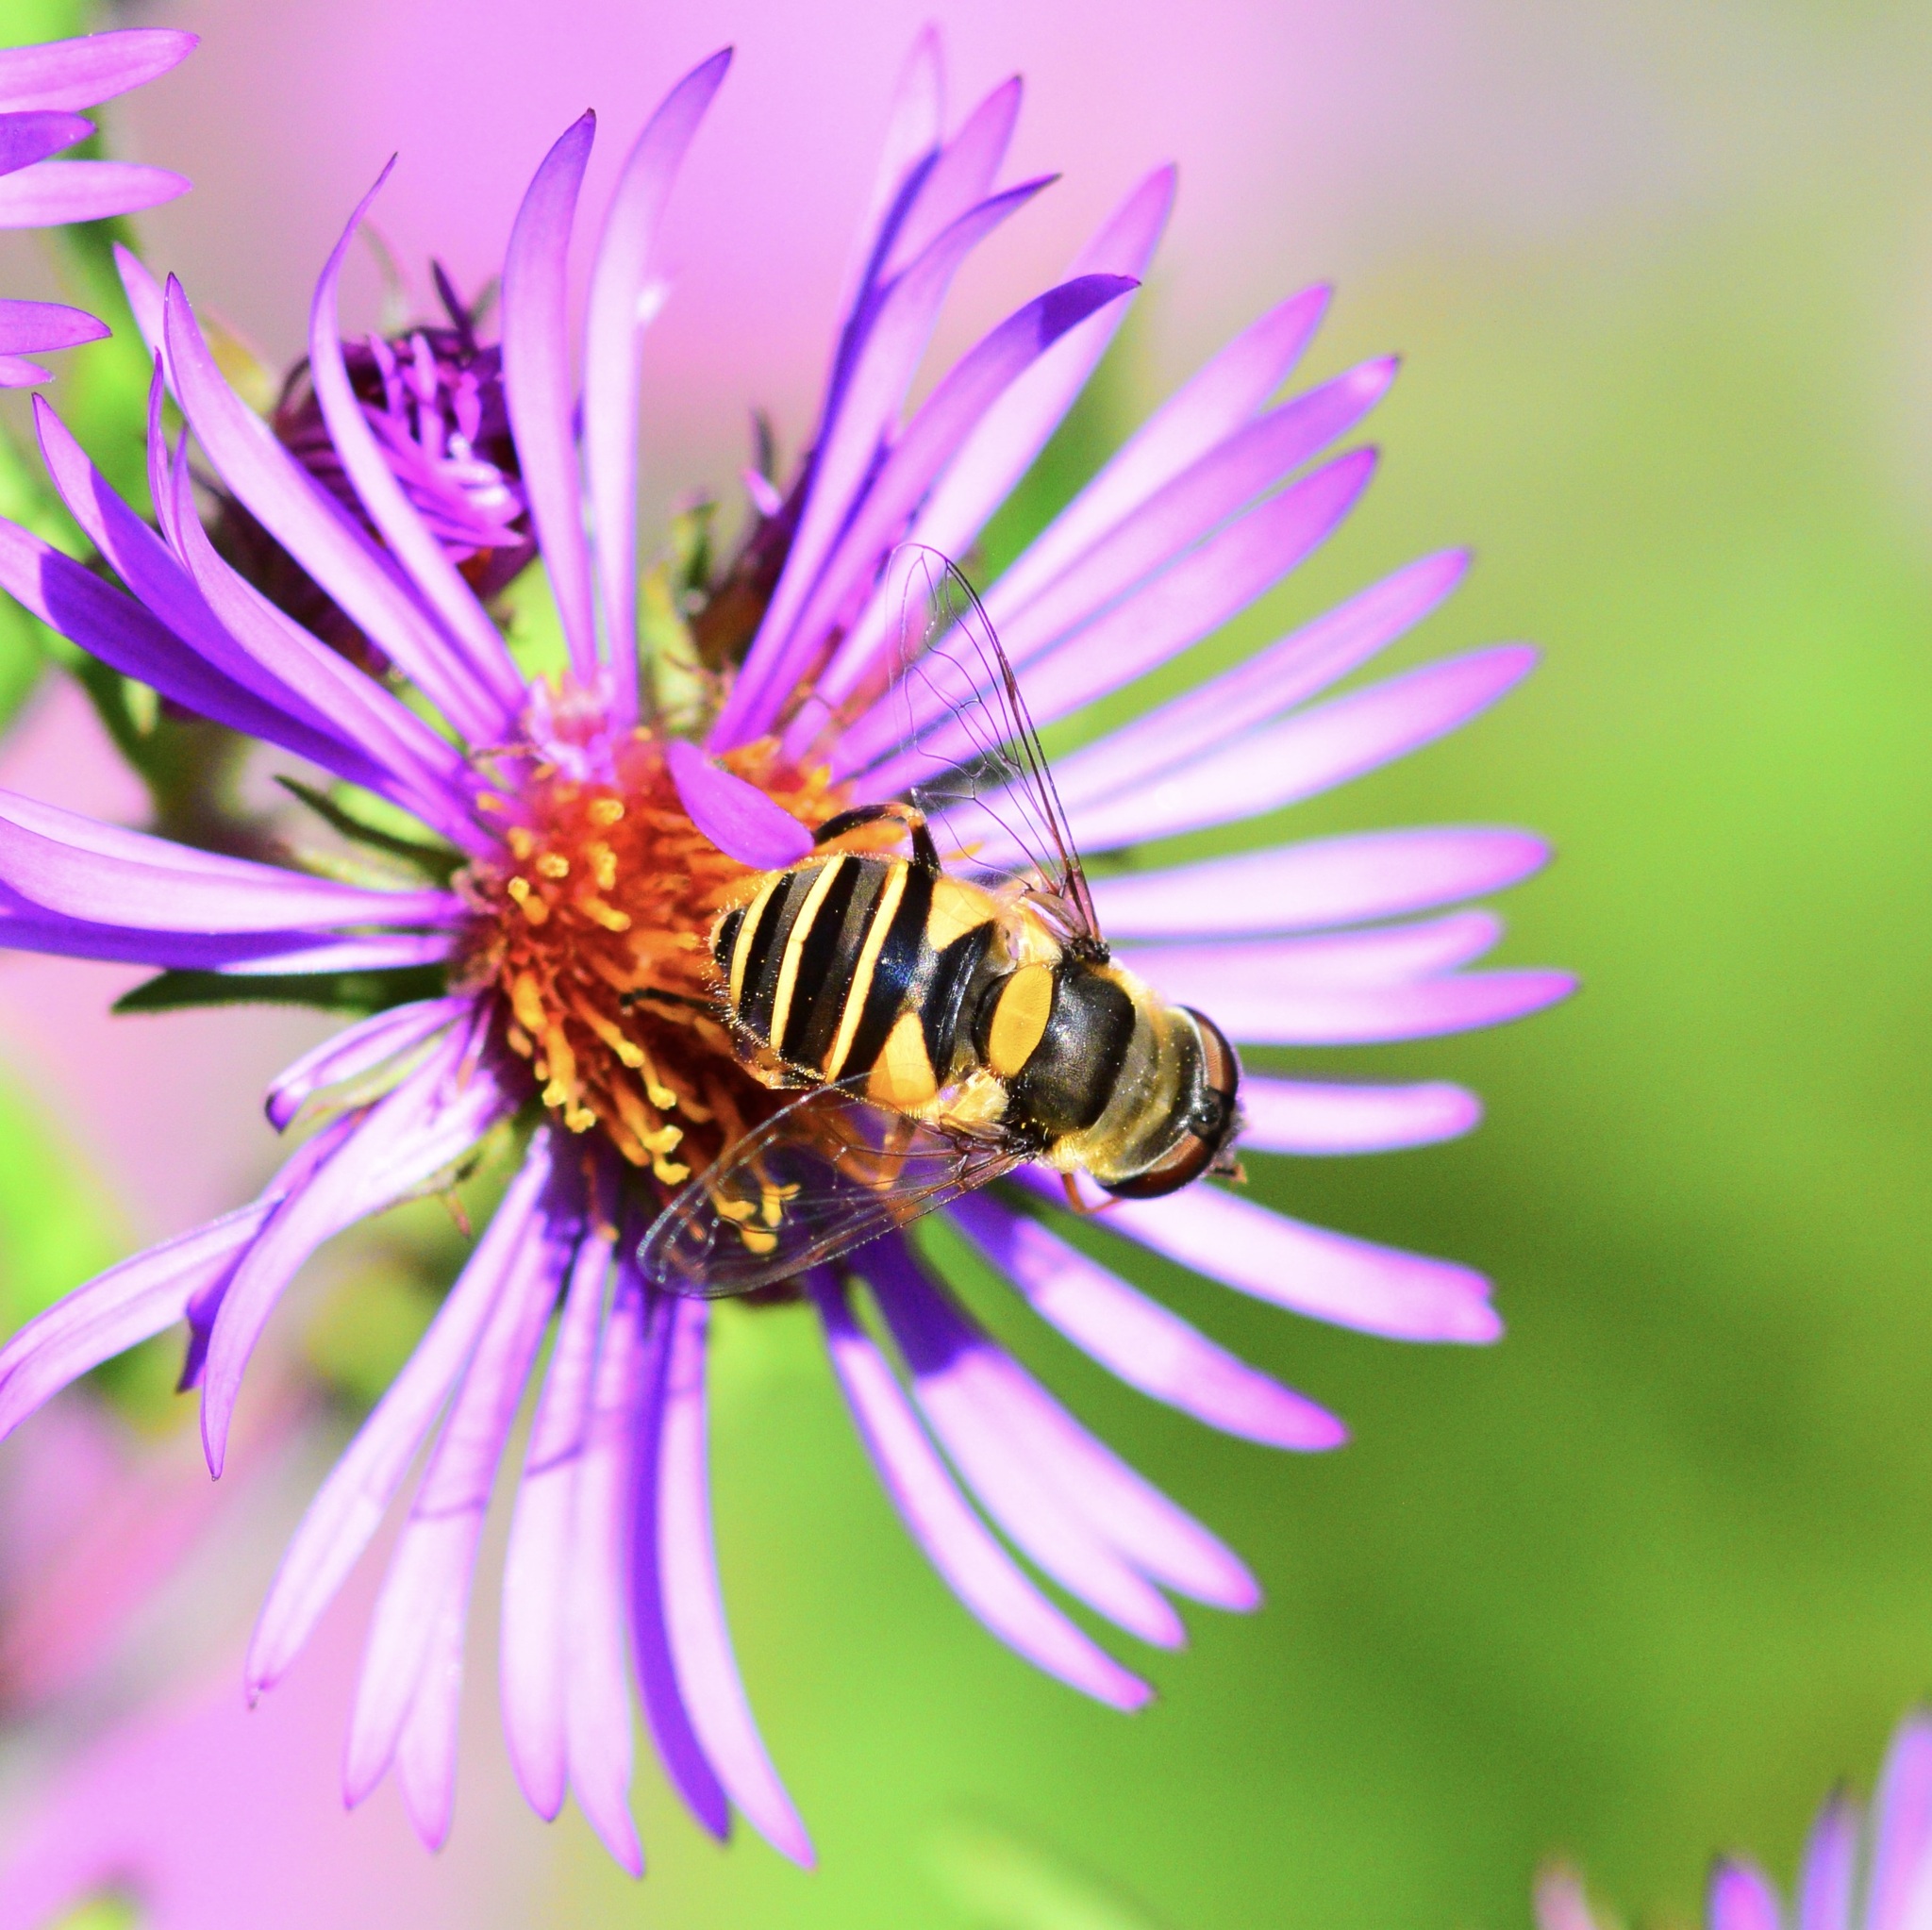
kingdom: Animalia
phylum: Arthropoda
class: Insecta
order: Diptera
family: Syrphidae
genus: Eristalis
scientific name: Eristalis transversa
